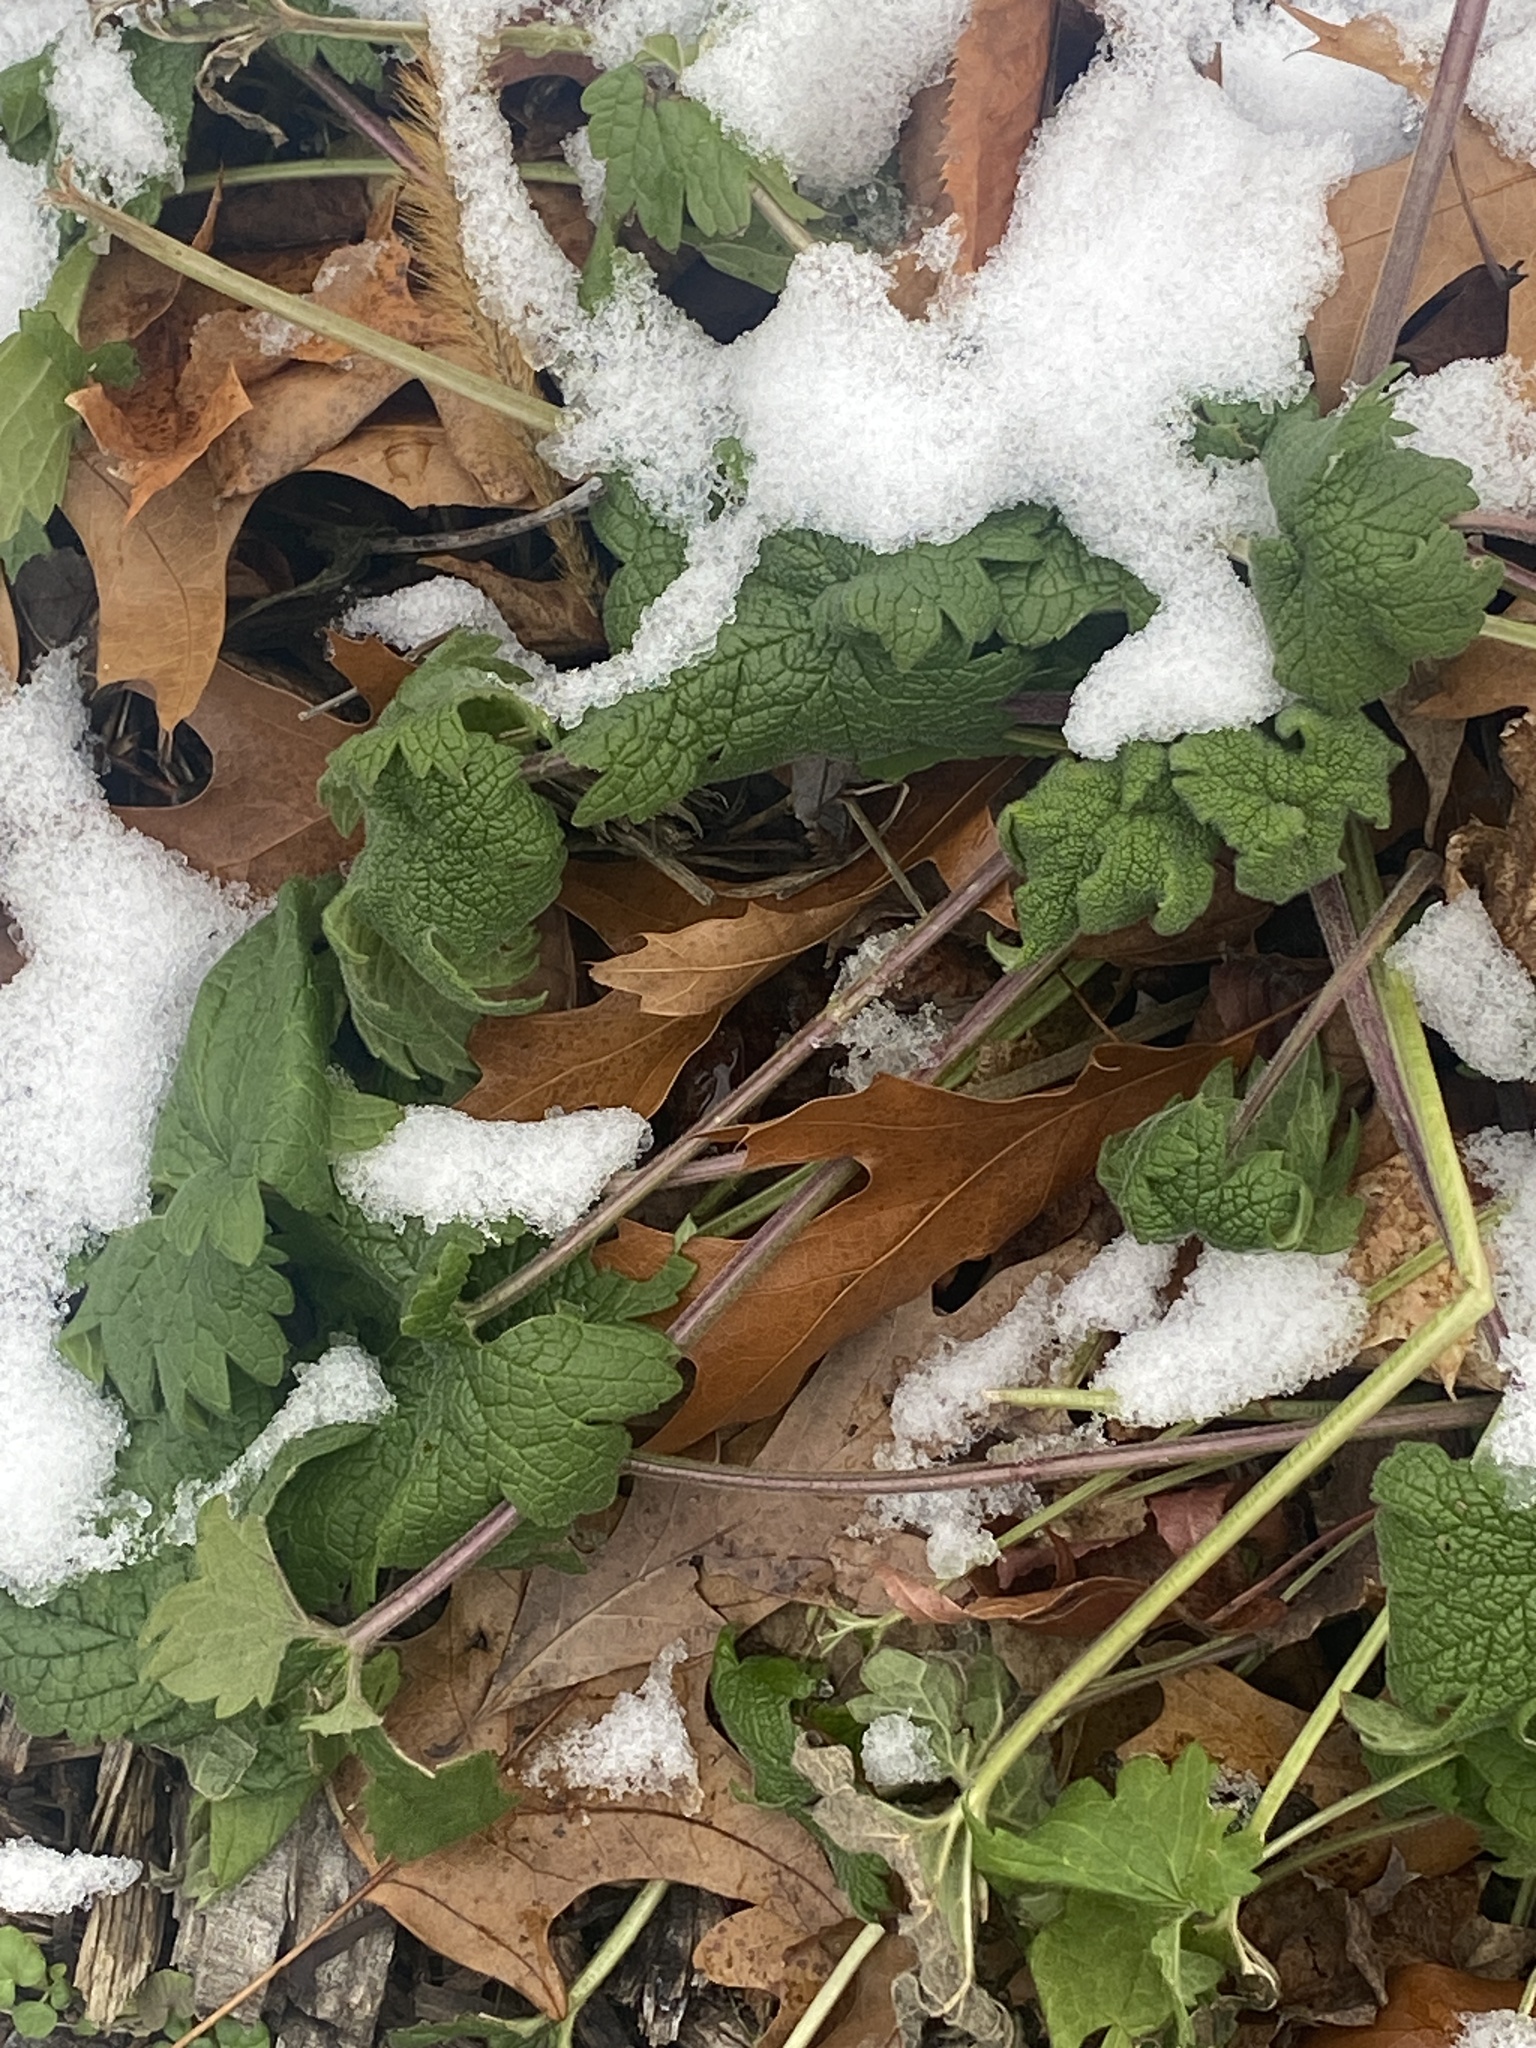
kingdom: Plantae
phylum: Tracheophyta
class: Magnoliopsida
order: Lamiales
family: Lamiaceae
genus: Leonurus
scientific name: Leonurus cardiaca
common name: Motherwort
